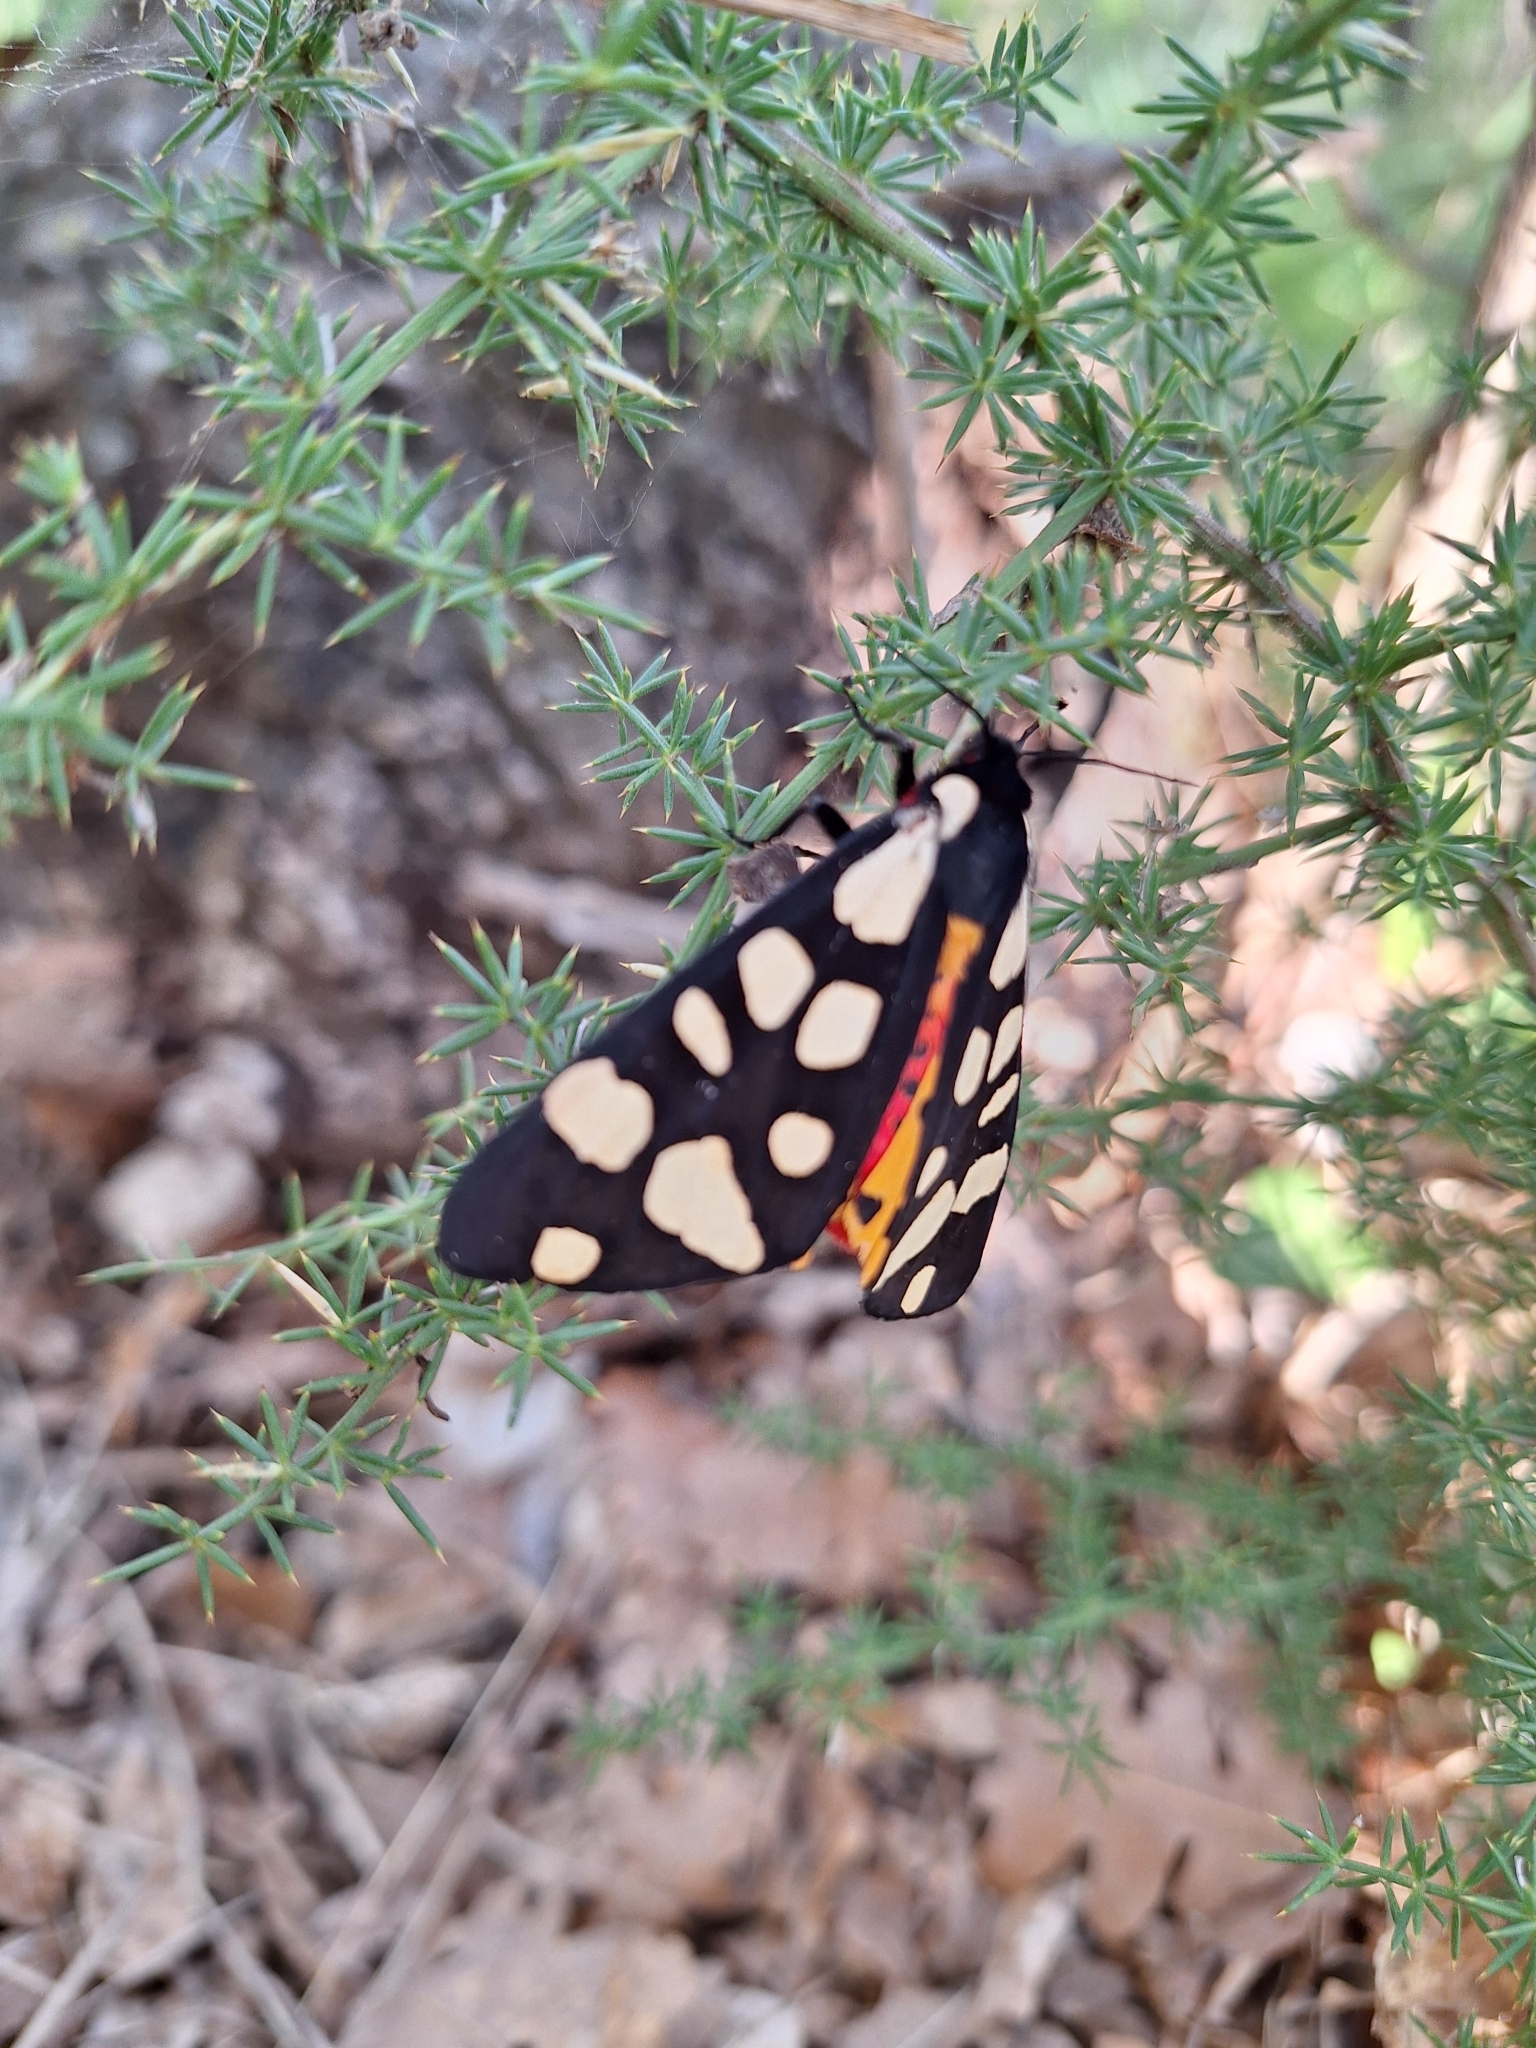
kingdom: Animalia
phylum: Arthropoda
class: Insecta
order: Lepidoptera
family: Erebidae
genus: Epicallia
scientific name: Epicallia villica
